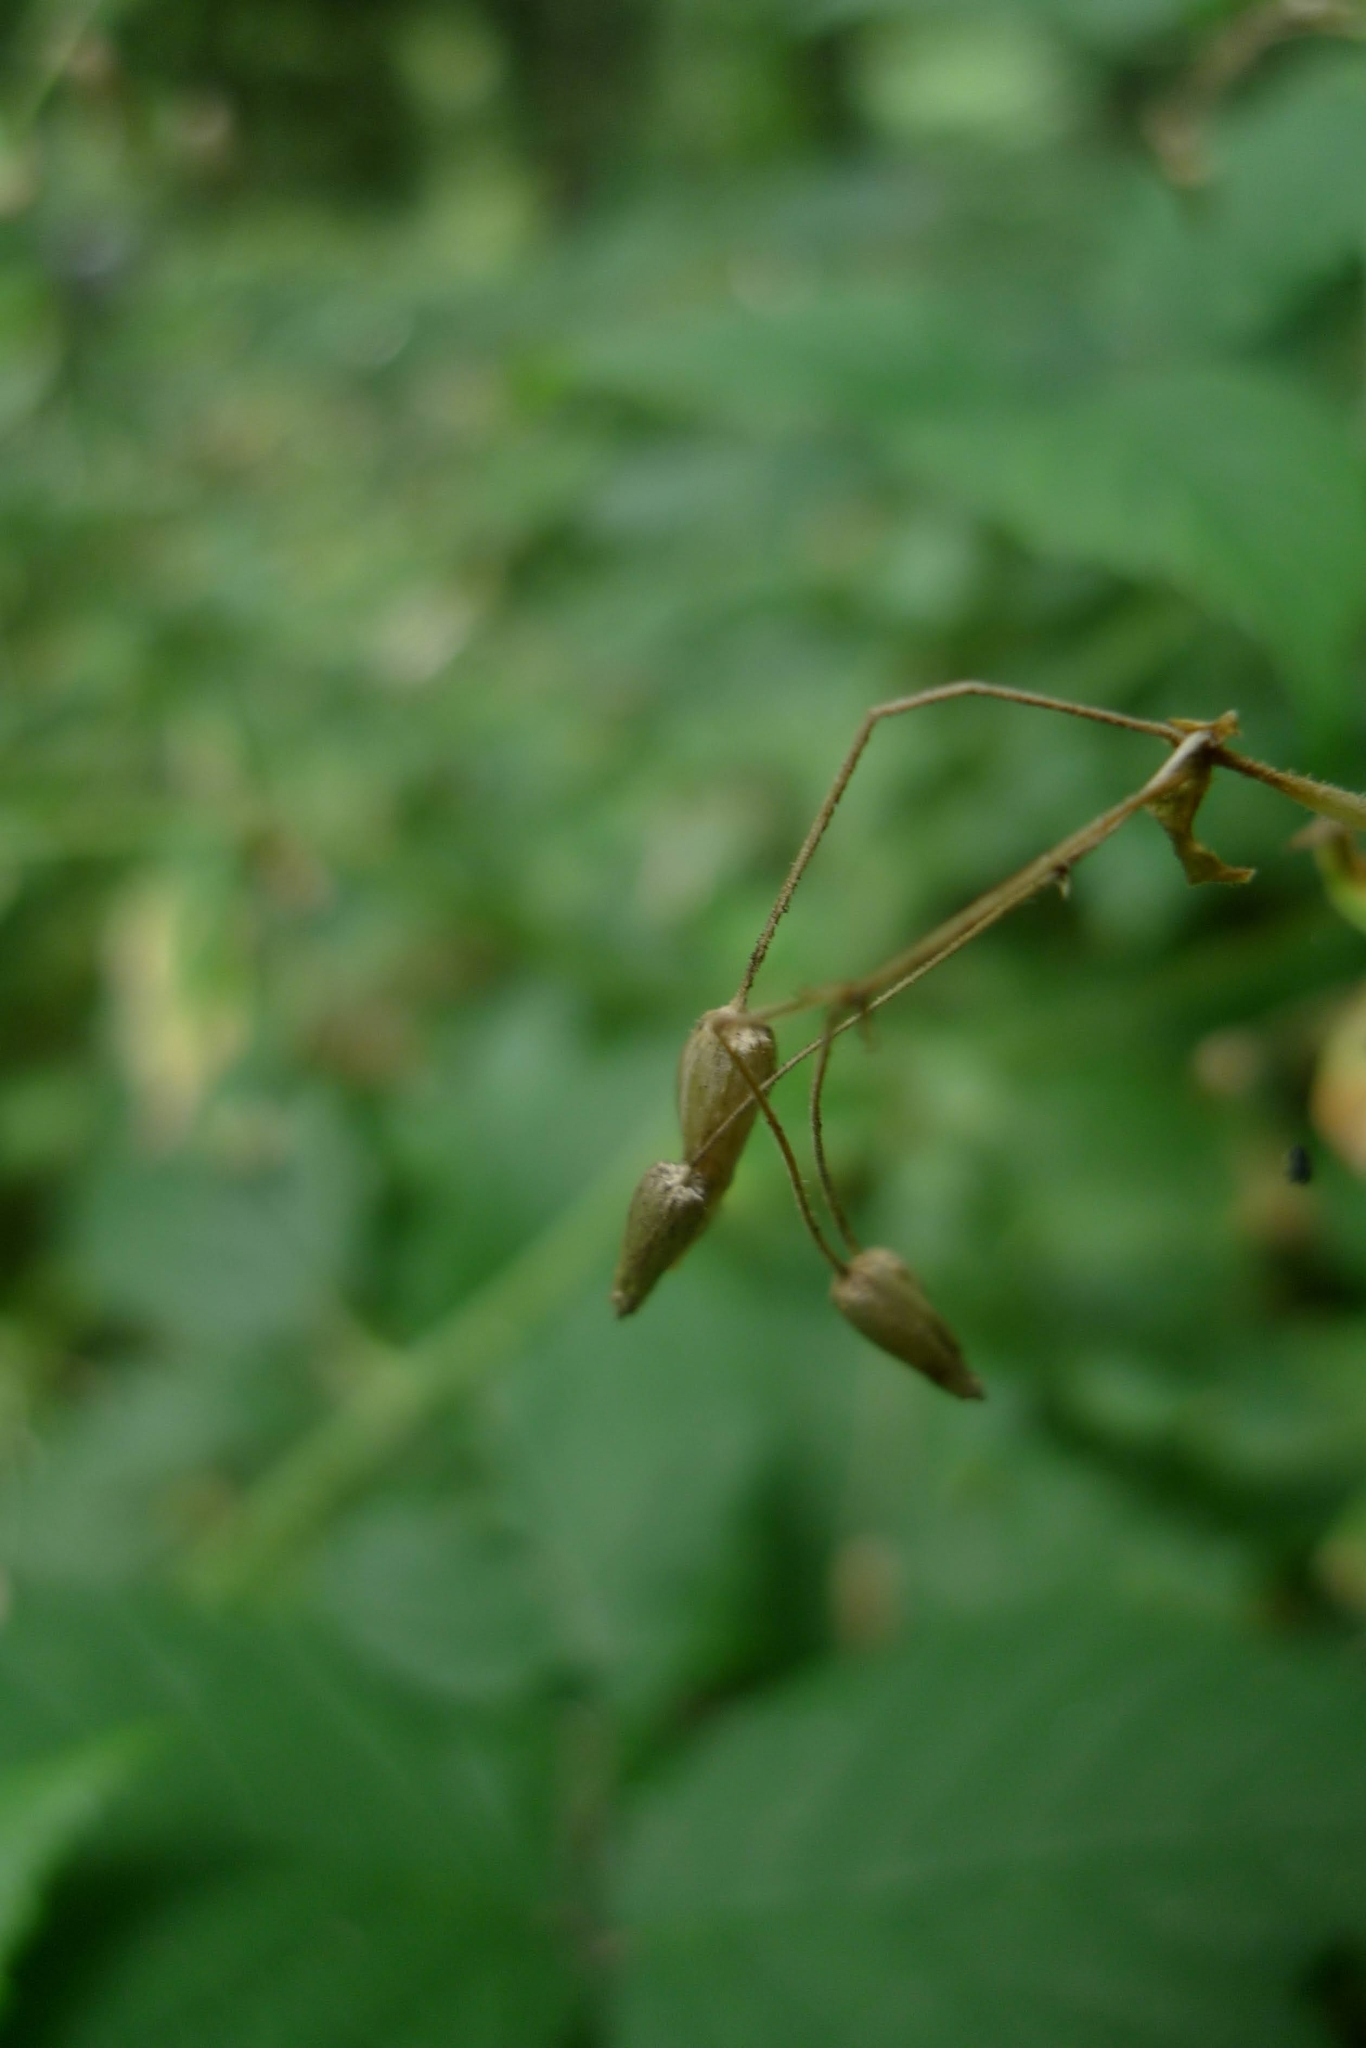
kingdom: Plantae
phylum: Tracheophyta
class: Magnoliopsida
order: Caryophyllales
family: Caryophyllaceae
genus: Stellaria
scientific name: Stellaria nemorum
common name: Wood stitchwort
